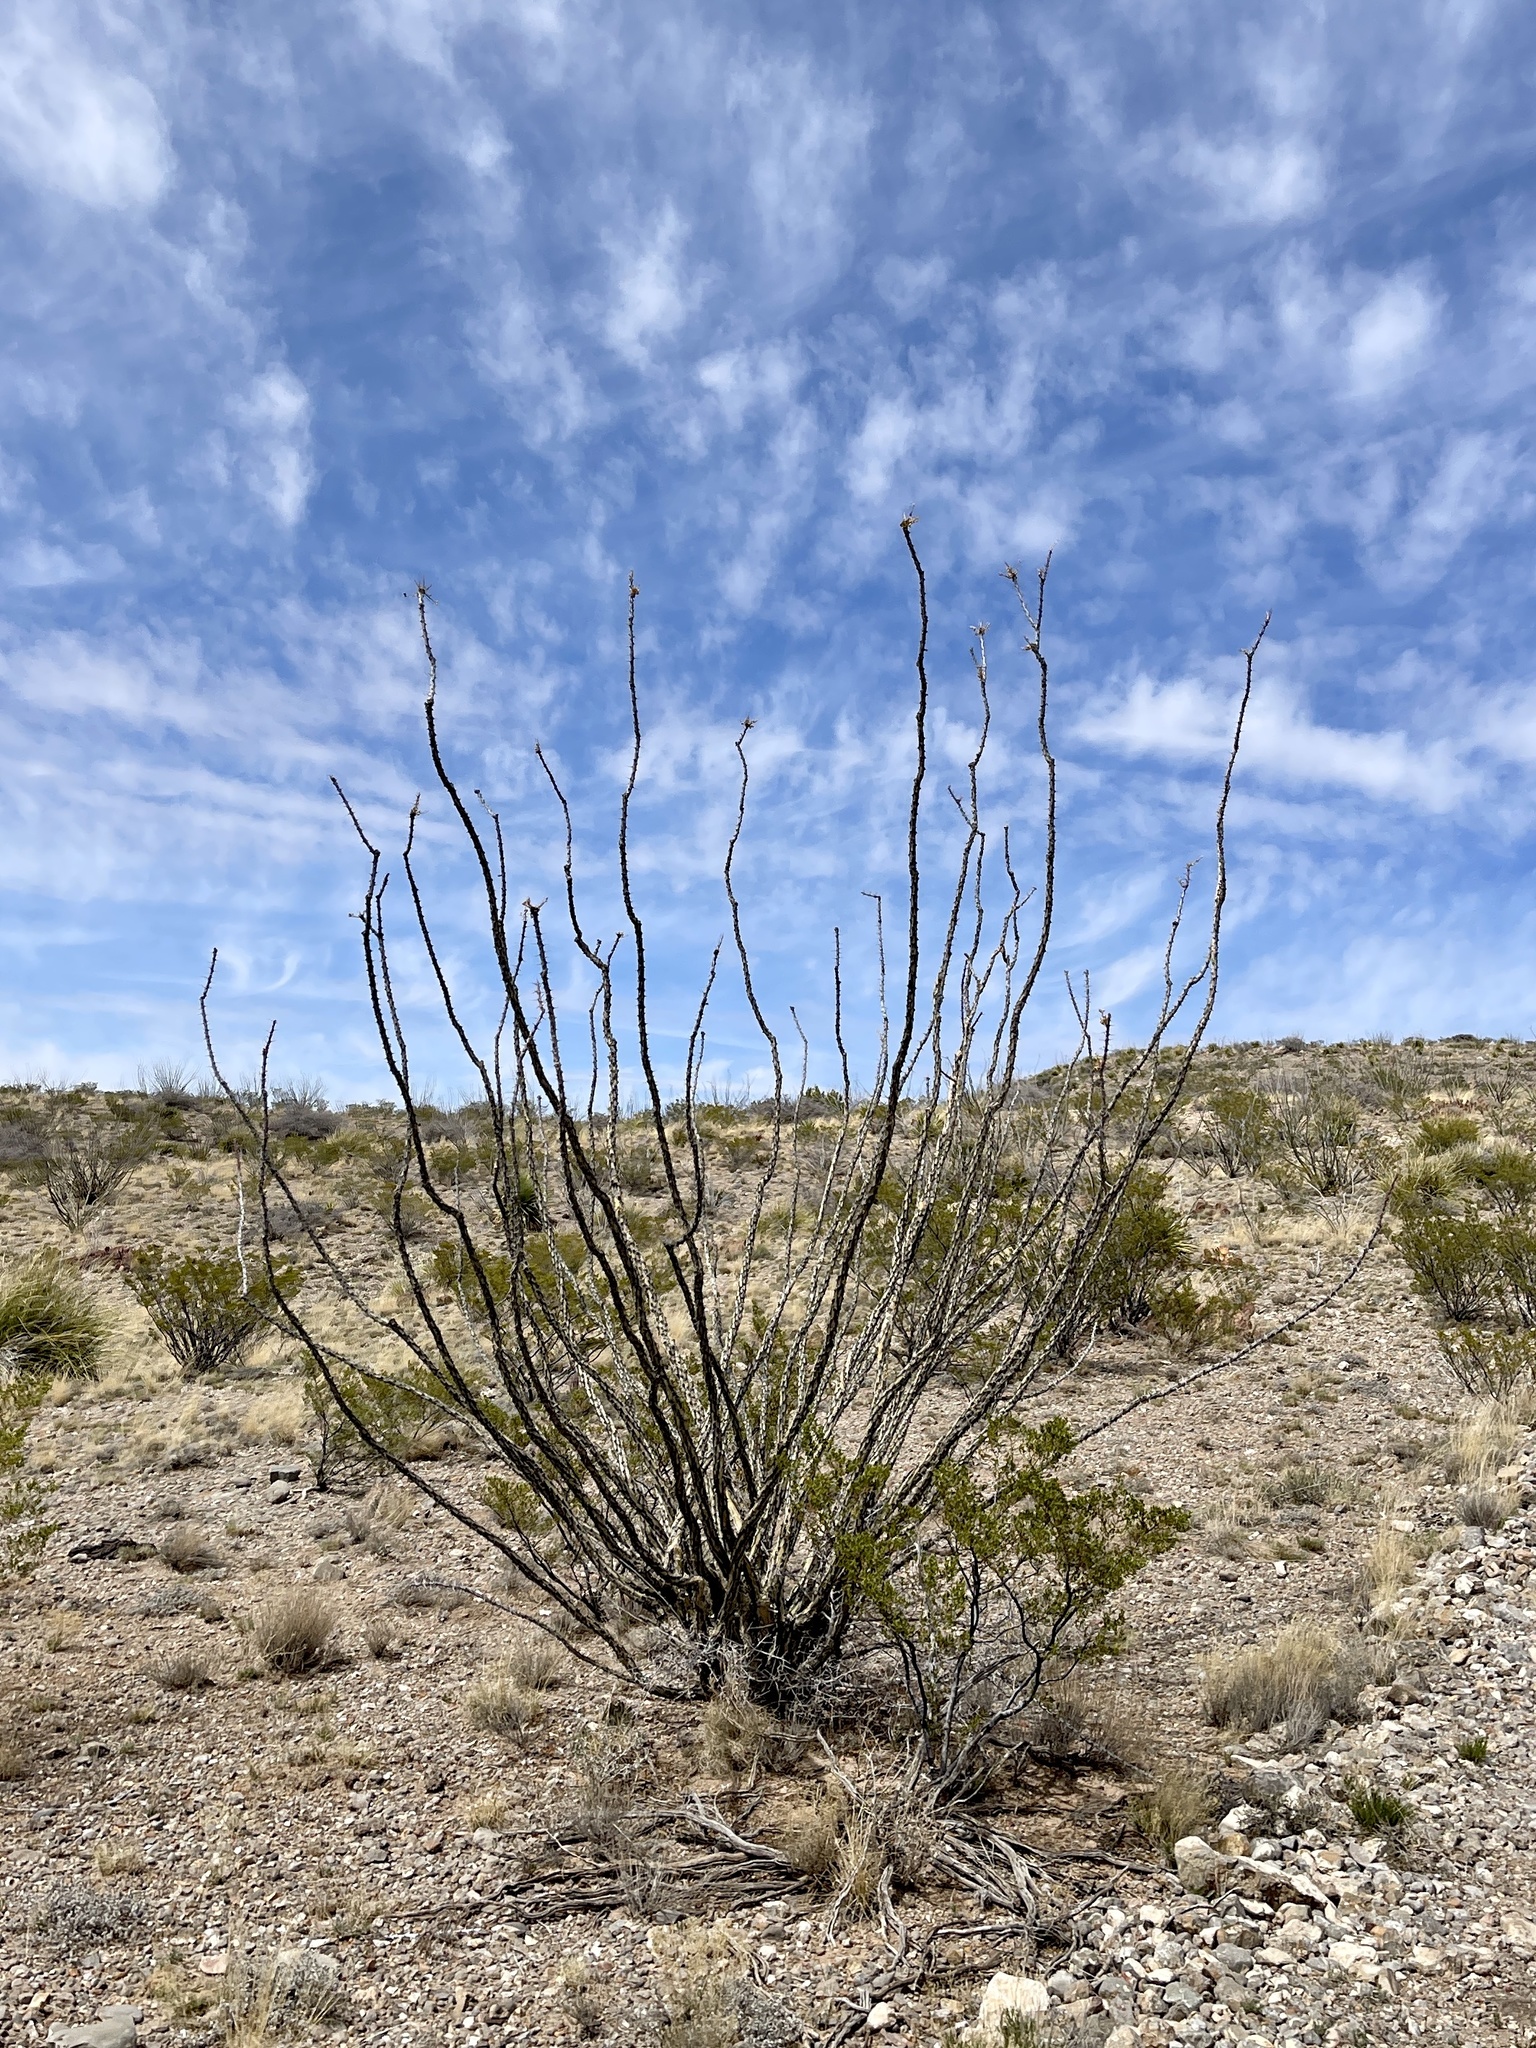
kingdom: Plantae
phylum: Tracheophyta
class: Magnoliopsida
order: Ericales
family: Fouquieriaceae
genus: Fouquieria
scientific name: Fouquieria splendens
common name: Vine-cactus
